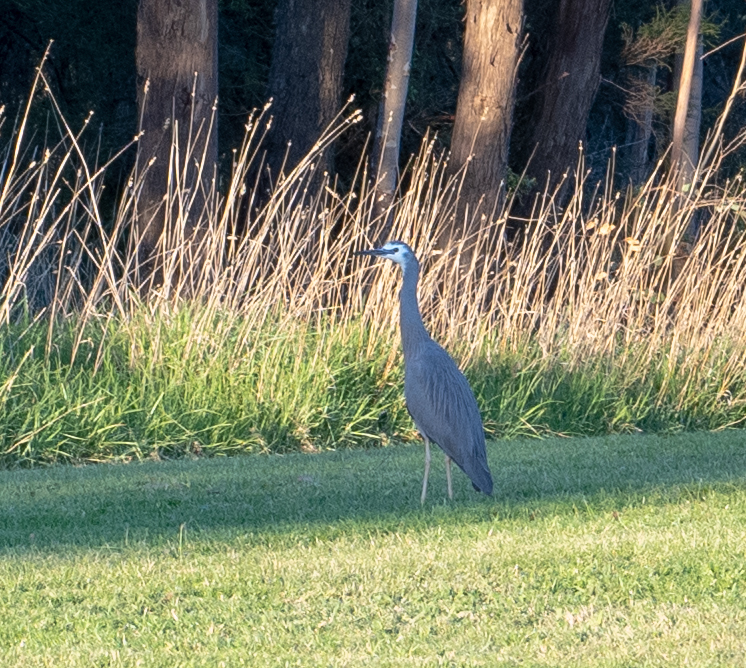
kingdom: Animalia
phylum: Chordata
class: Aves
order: Pelecaniformes
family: Ardeidae
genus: Egretta
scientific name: Egretta novaehollandiae
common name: White-faced heron
